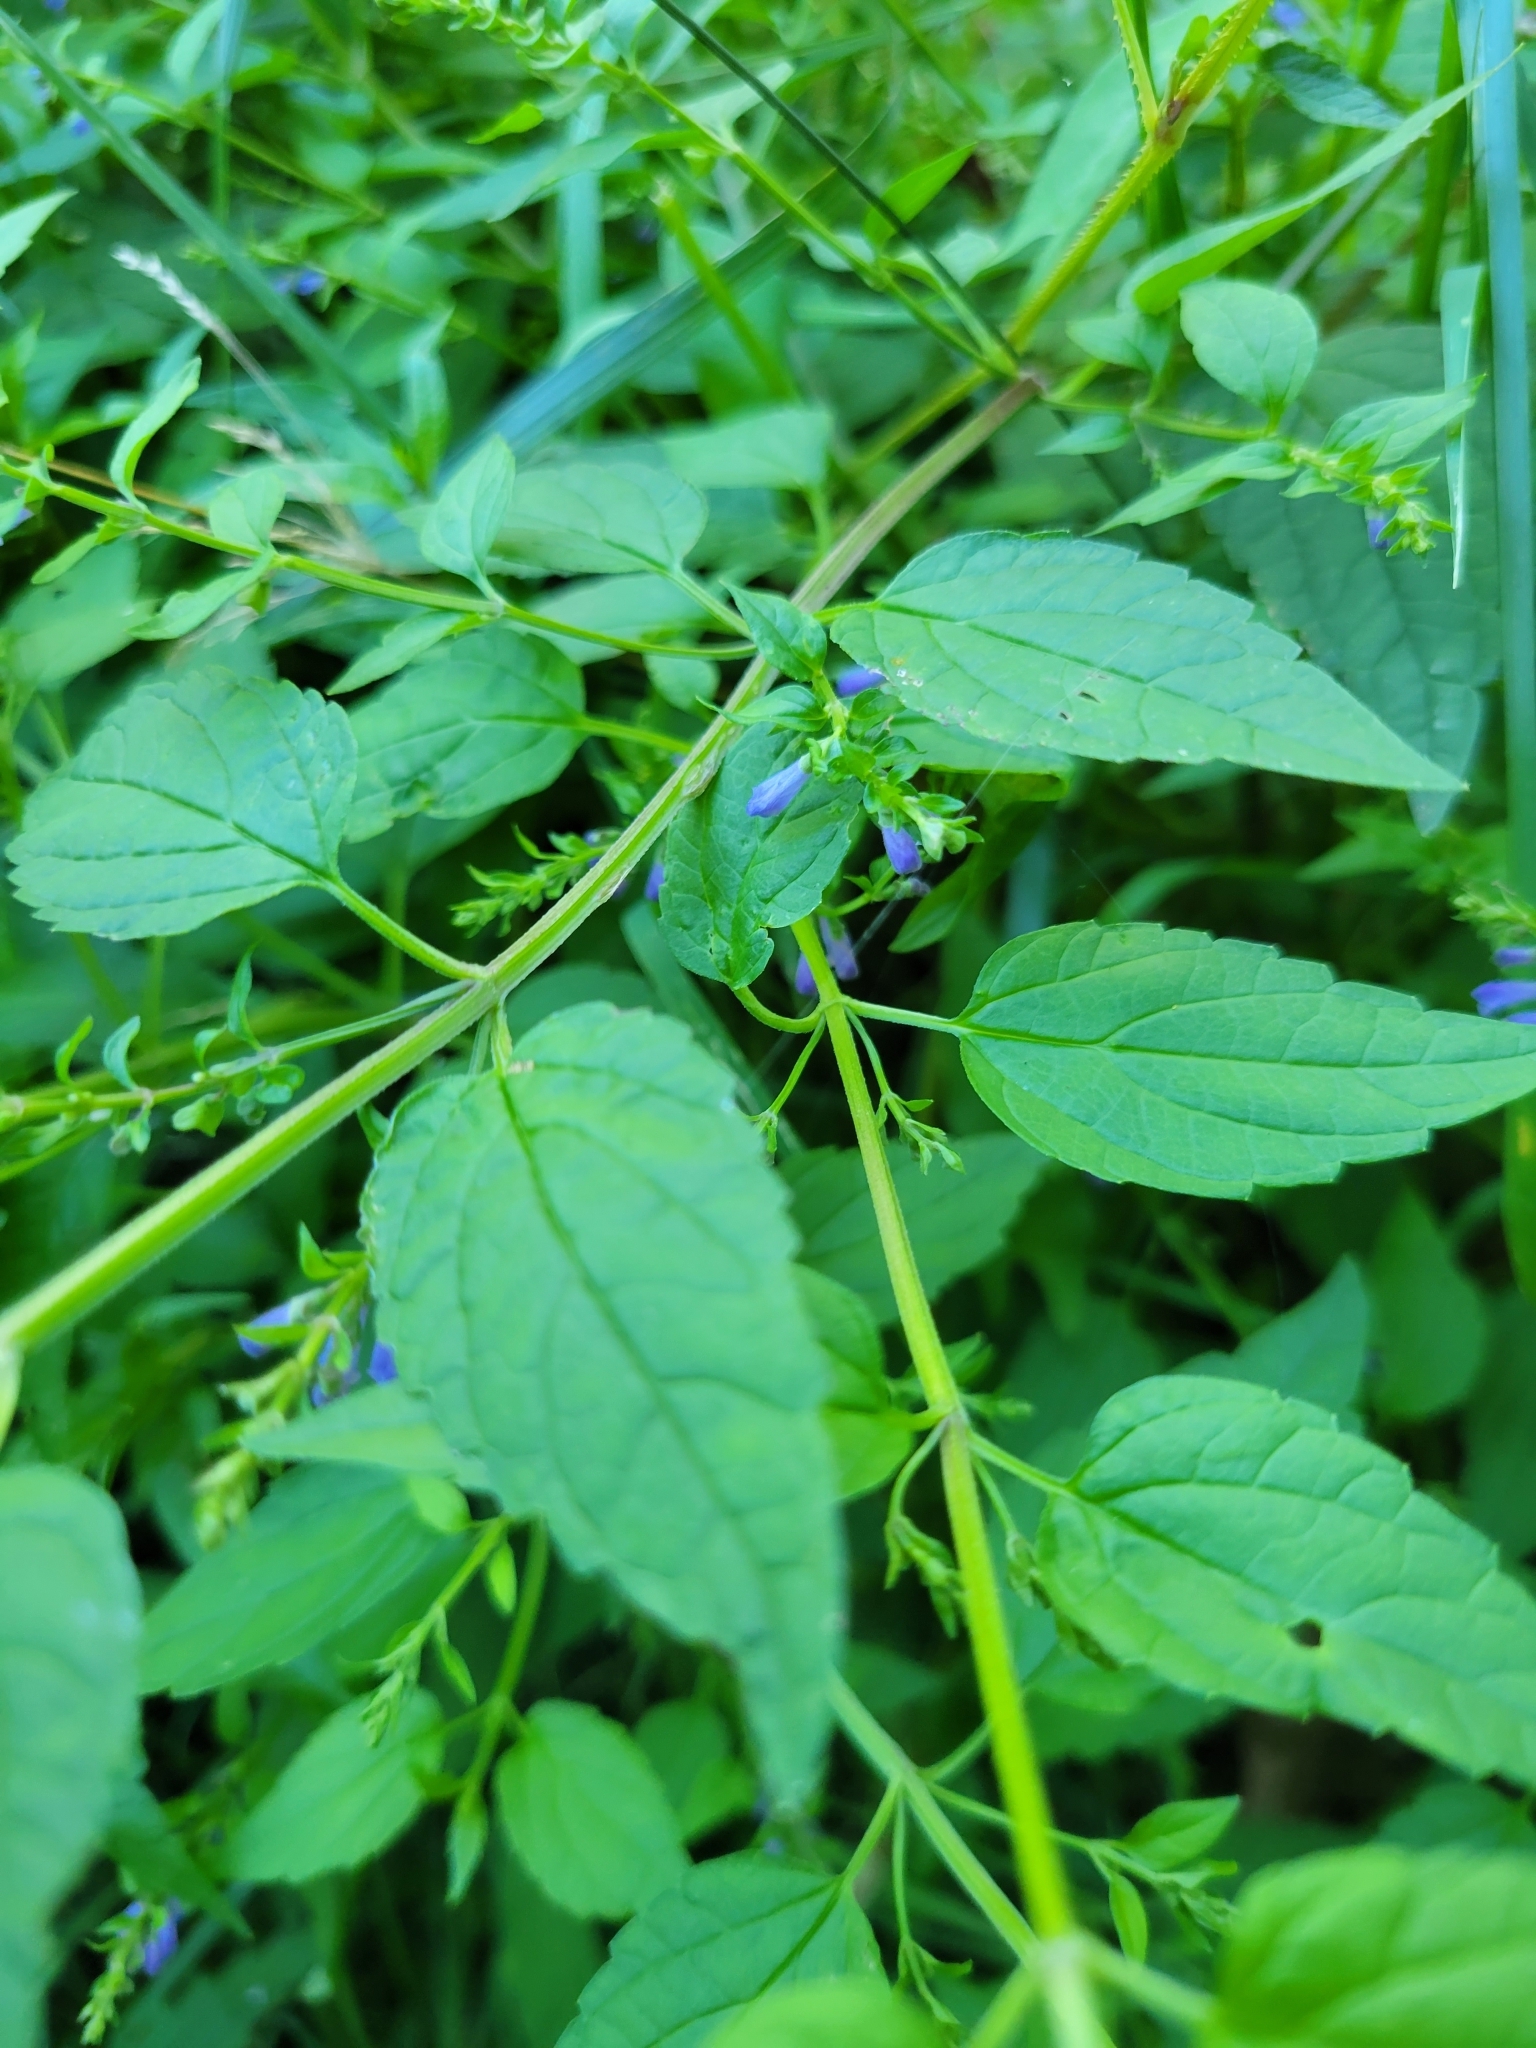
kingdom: Plantae
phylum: Tracheophyta
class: Magnoliopsida
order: Lamiales
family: Lamiaceae
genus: Scutellaria
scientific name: Scutellaria lateriflora
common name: Blue skullcap
